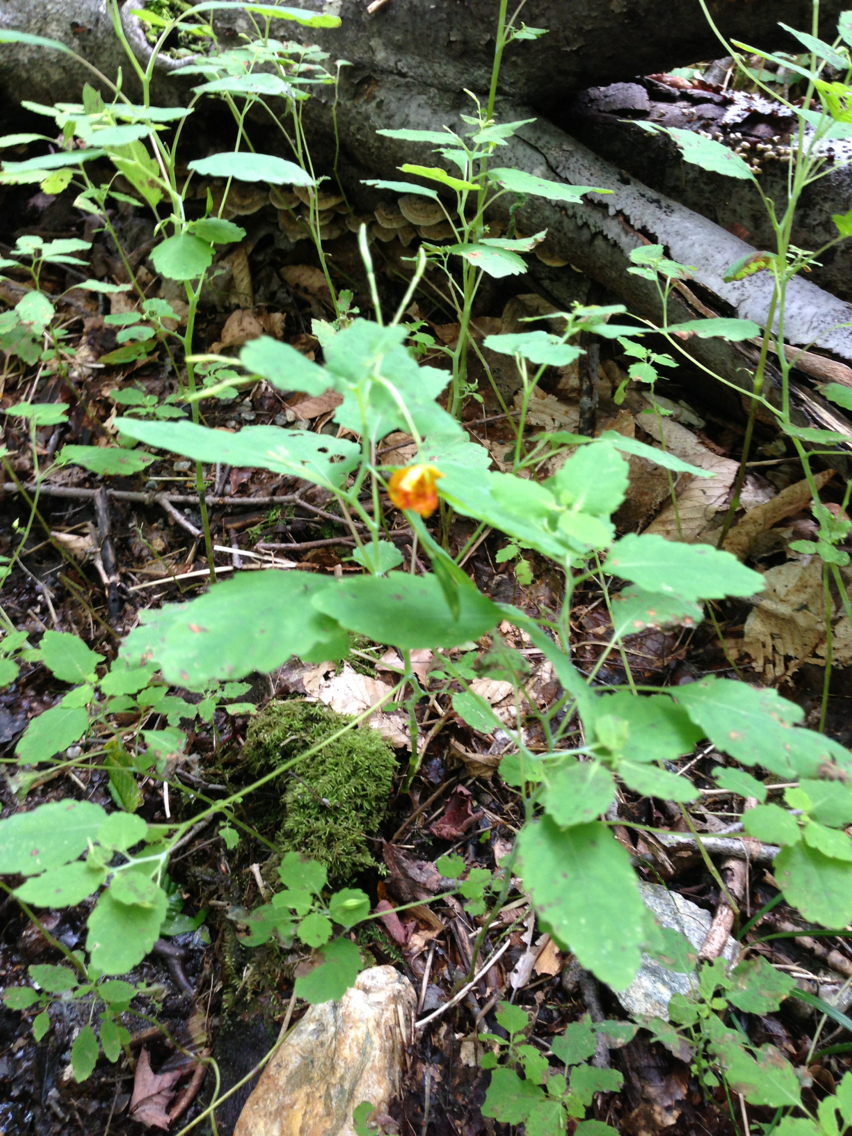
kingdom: Plantae
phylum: Tracheophyta
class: Magnoliopsida
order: Ericales
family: Balsaminaceae
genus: Impatiens
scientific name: Impatiens capensis
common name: Orange balsam
